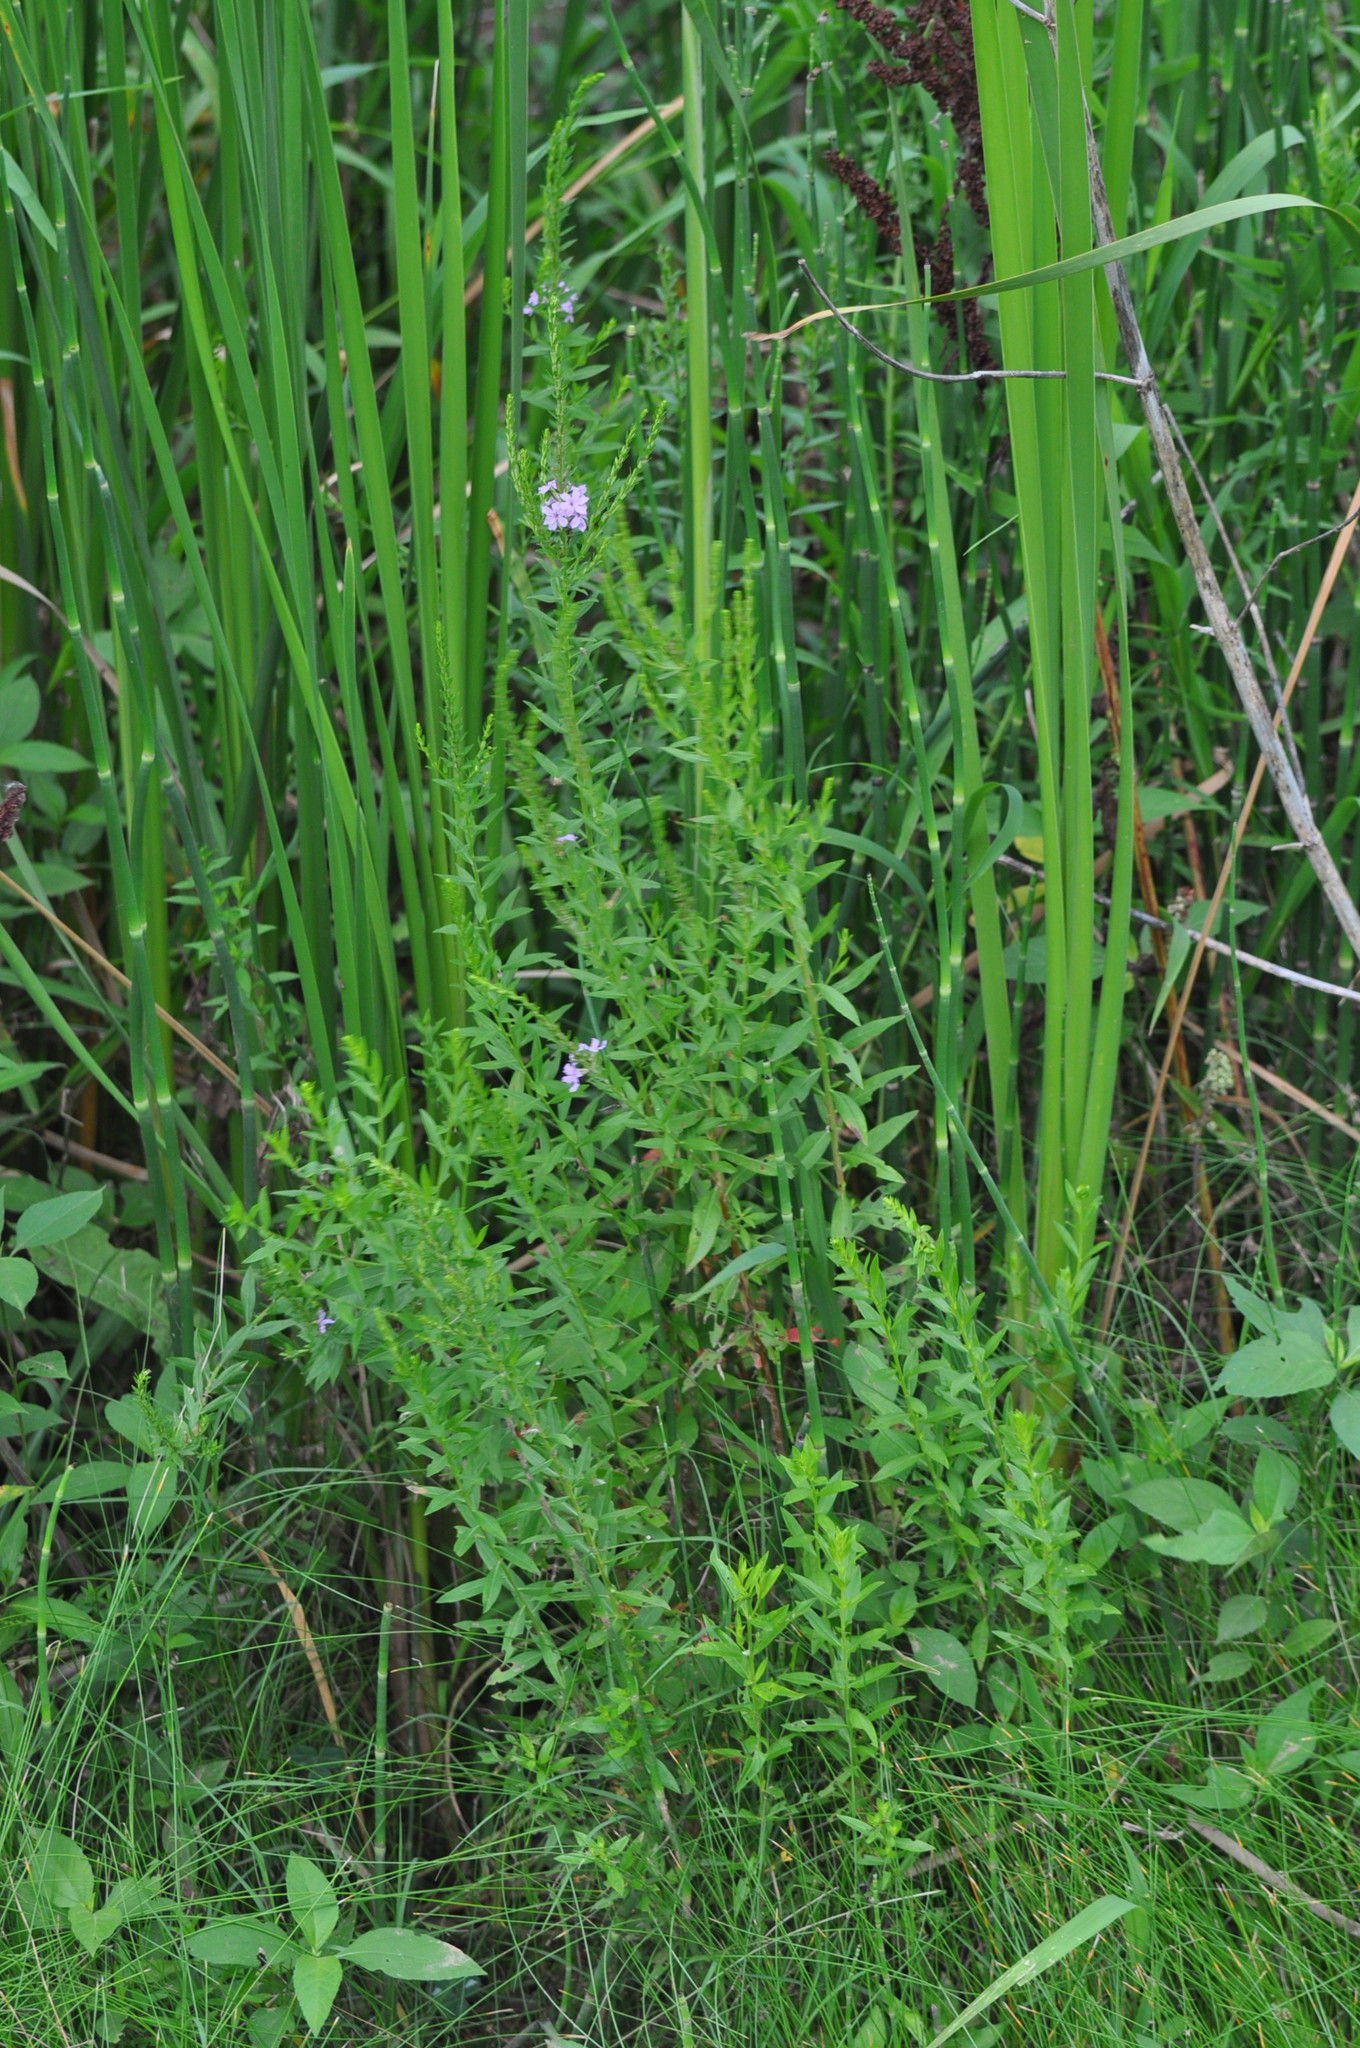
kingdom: Plantae
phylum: Tracheophyta
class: Magnoliopsida
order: Myrtales
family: Lythraceae
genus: Lythrum
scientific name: Lythrum alatum
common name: Winged loosestrife
